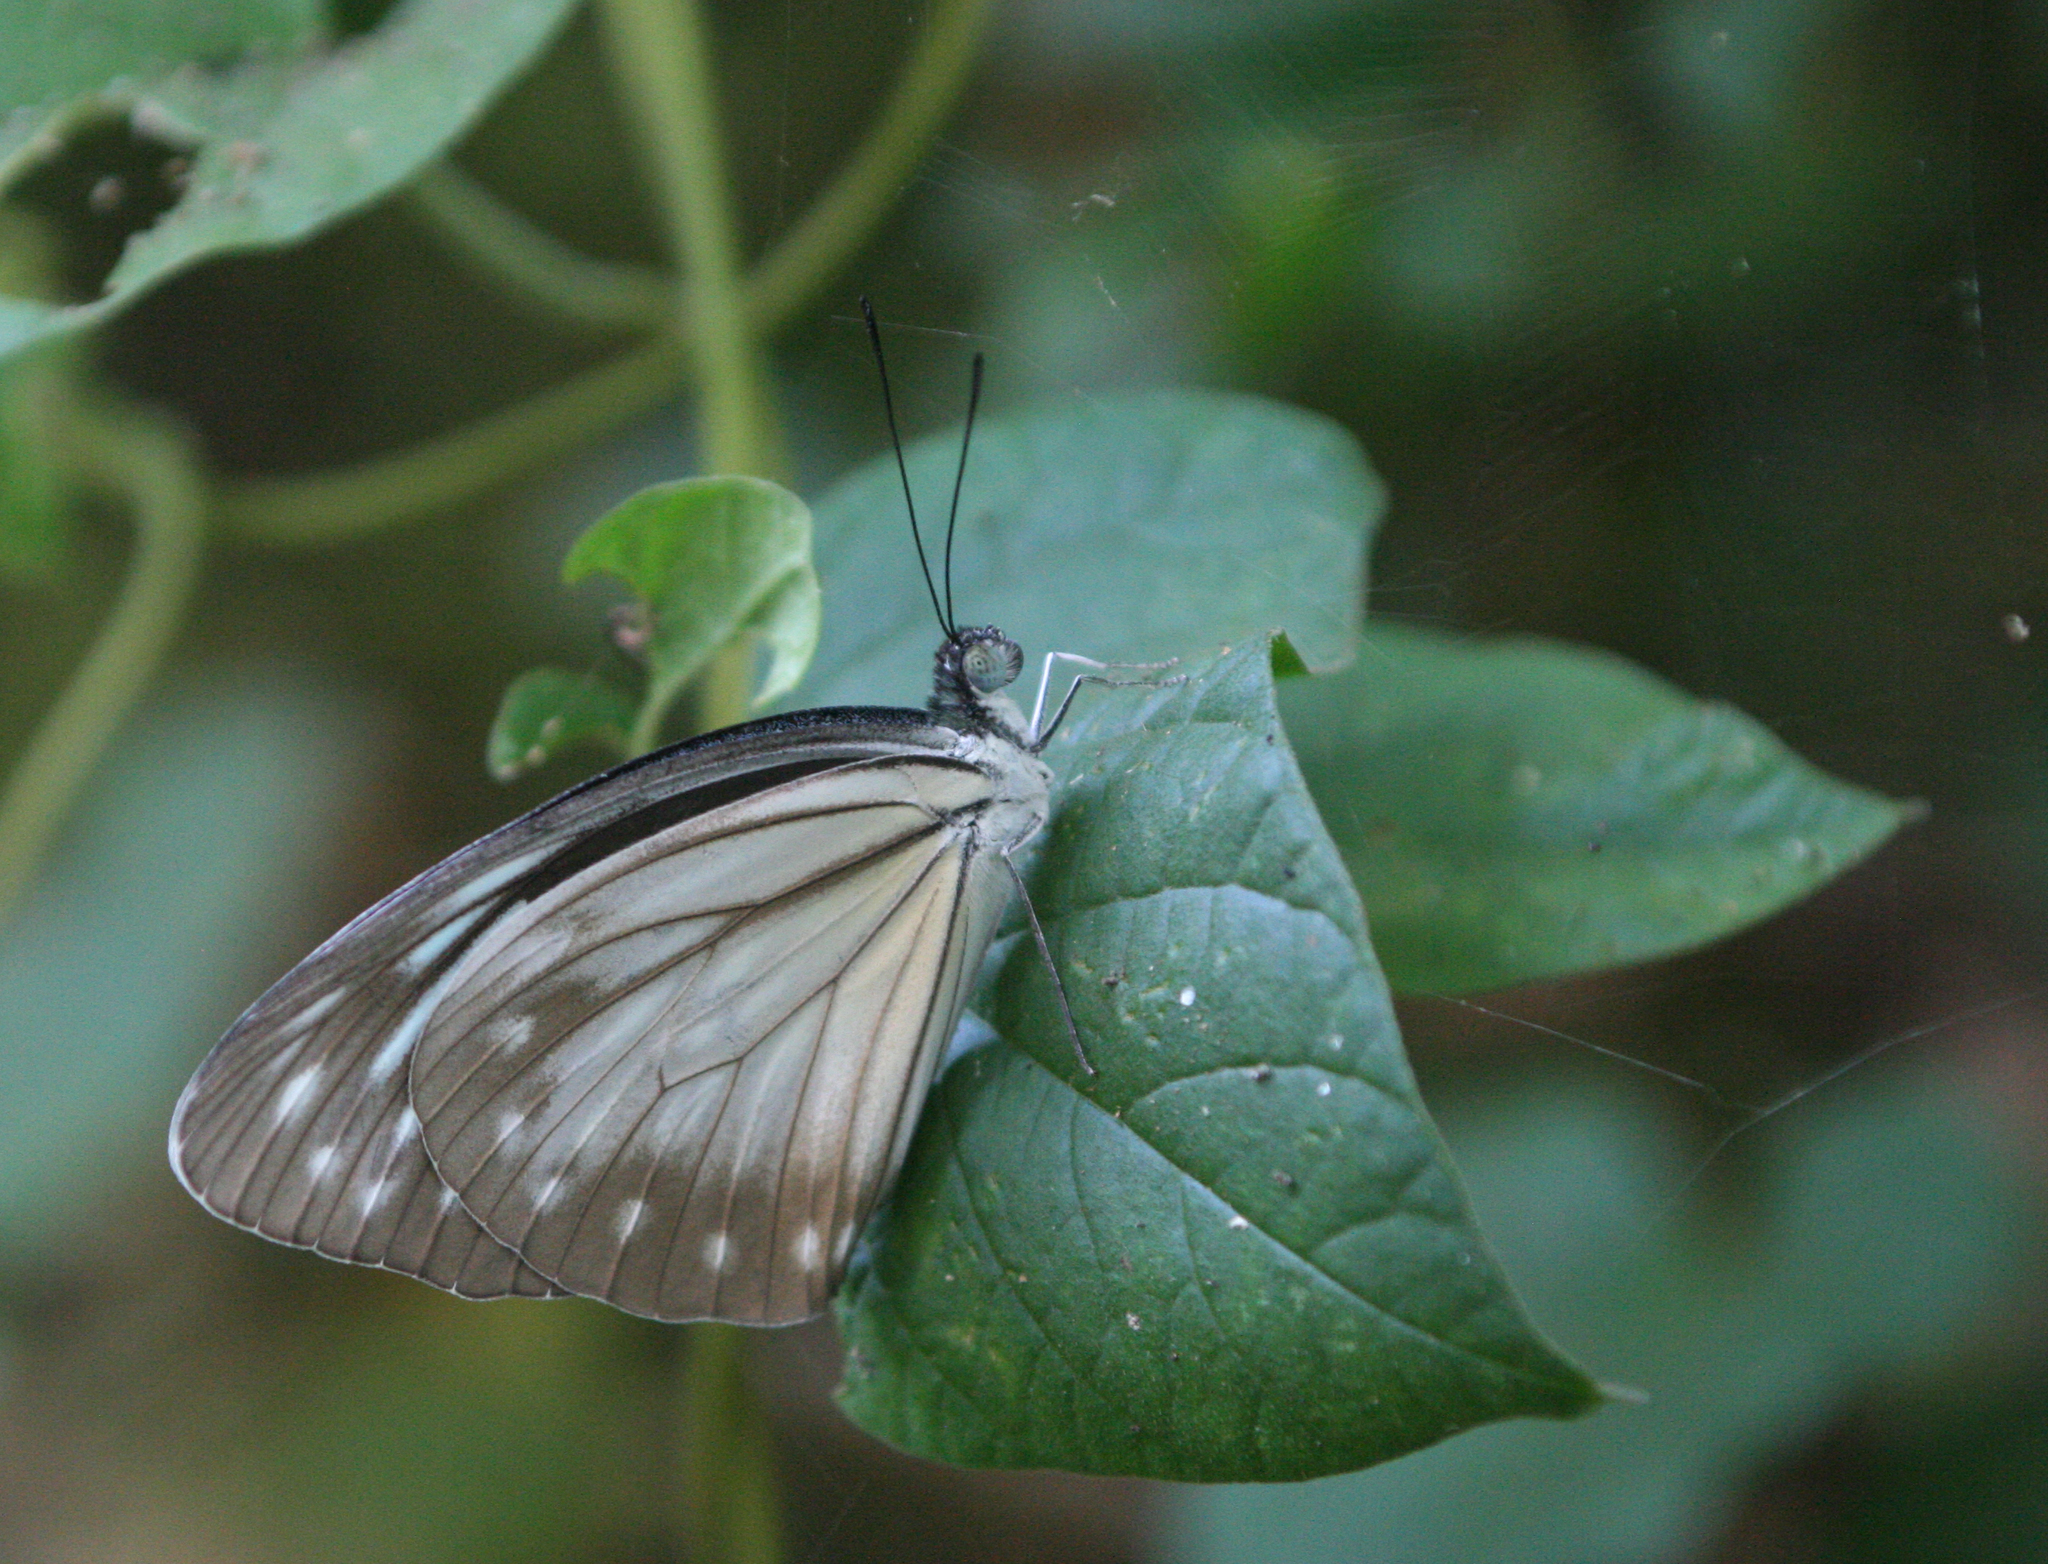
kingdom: Animalia
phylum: Arthropoda
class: Insecta
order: Lepidoptera
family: Pieridae
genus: Pareronia
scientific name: Pareronia hippia
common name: Indian wanderer
